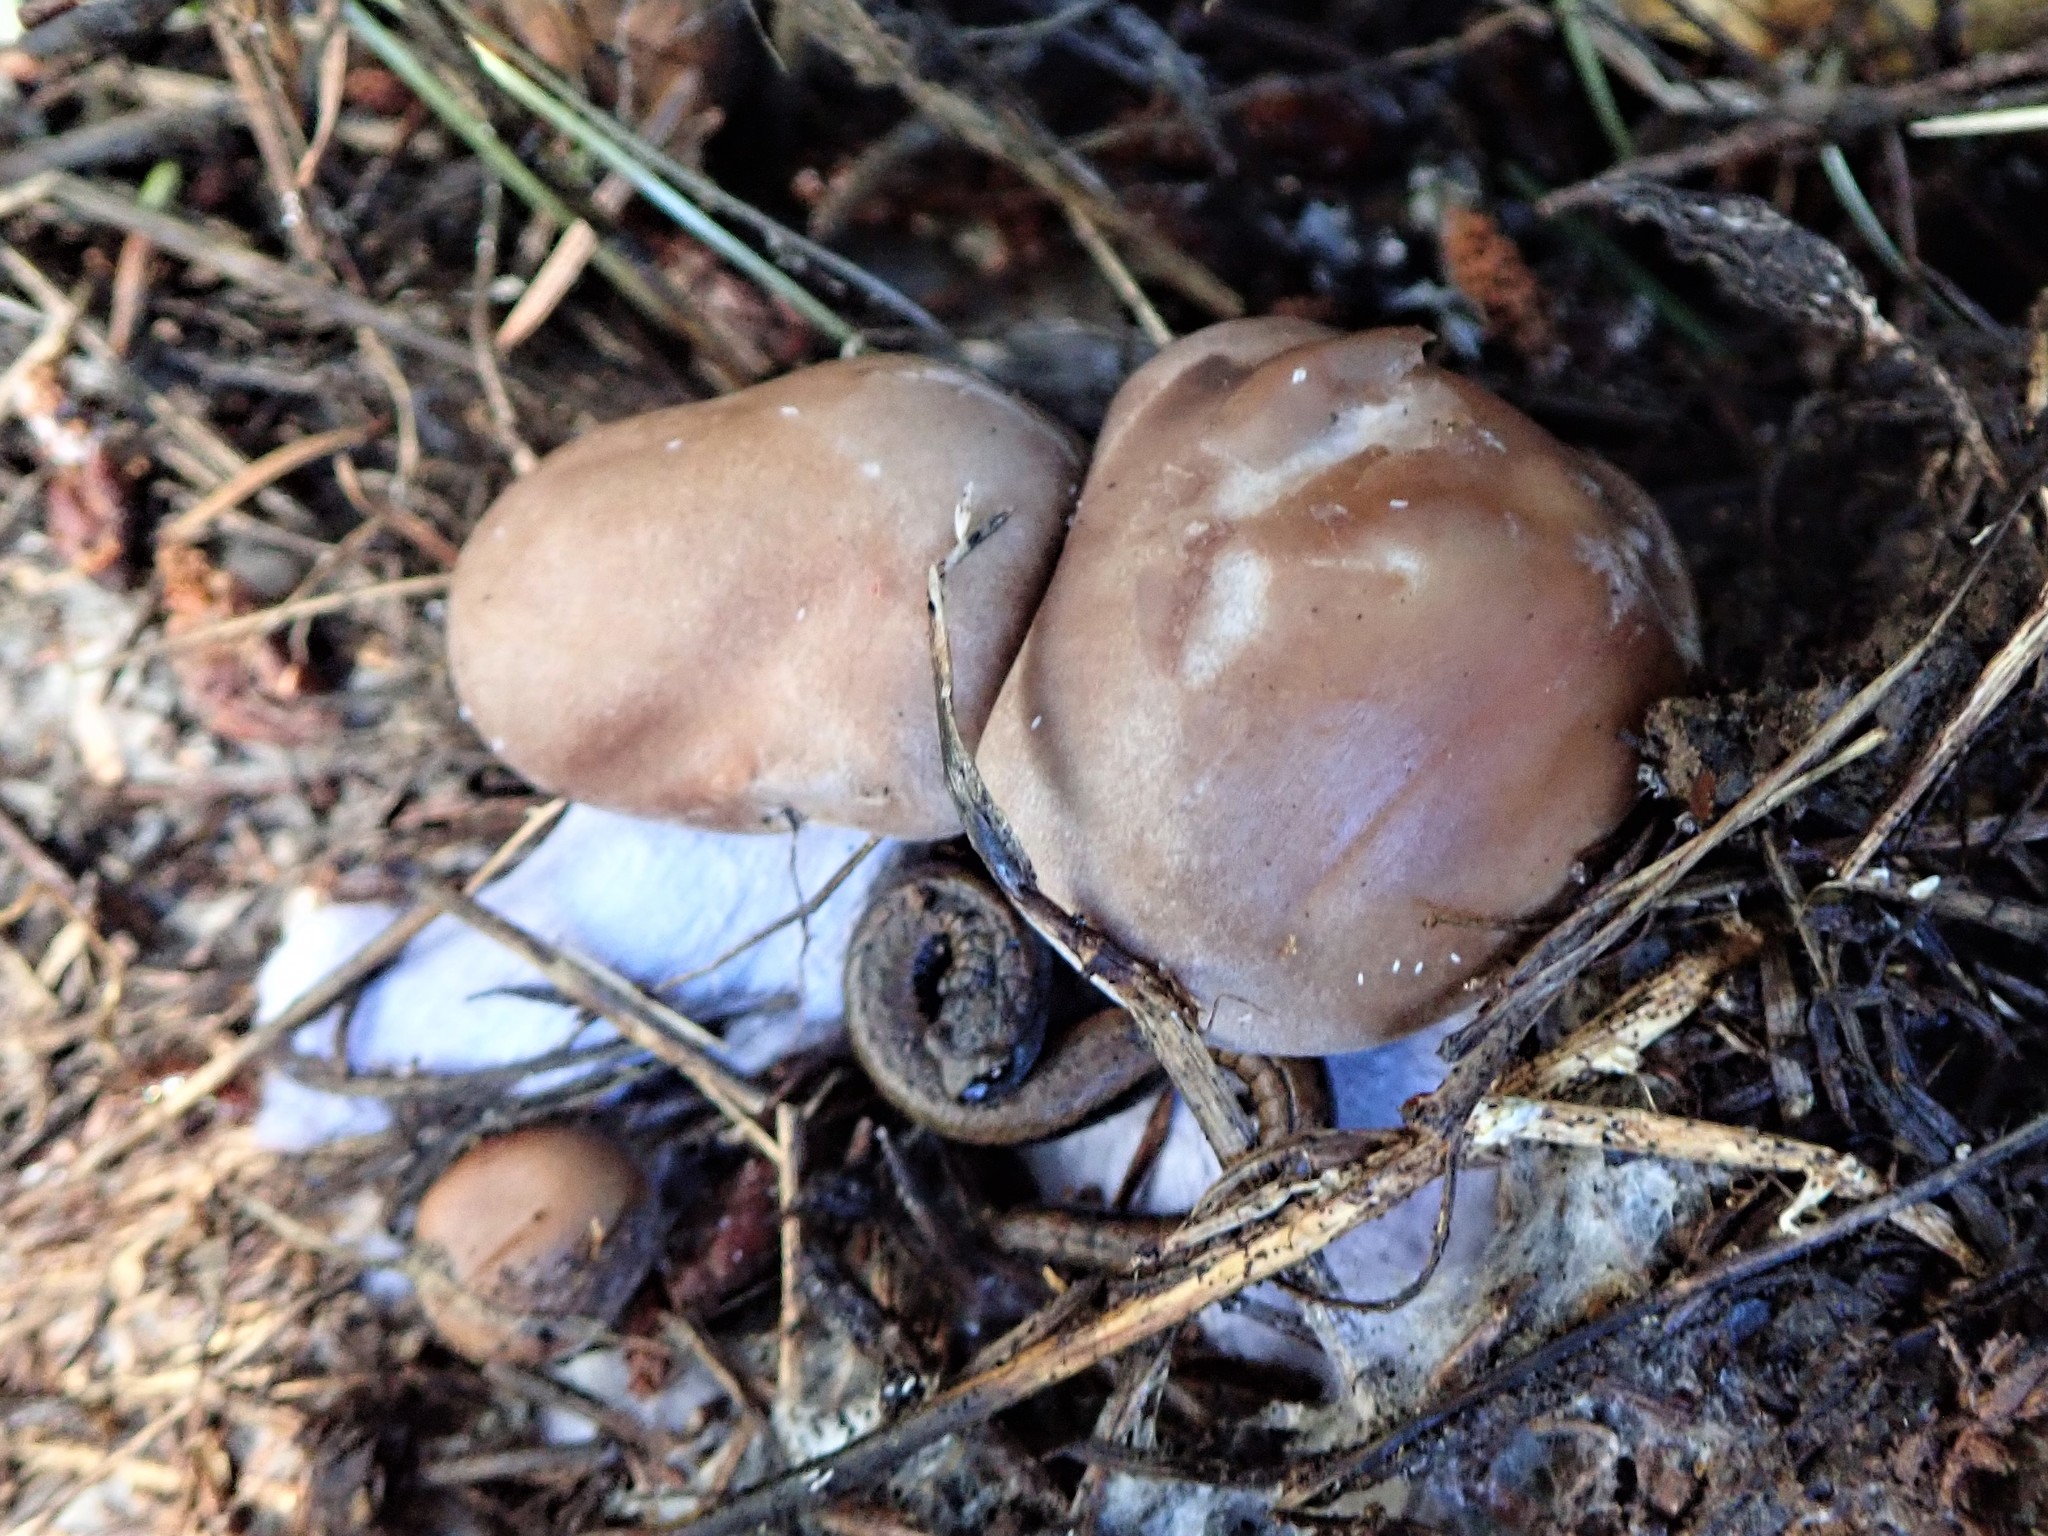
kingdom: Fungi
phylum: Basidiomycota
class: Agaricomycetes
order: Agaricales
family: Tricholomataceae
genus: Collybia
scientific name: Collybia
